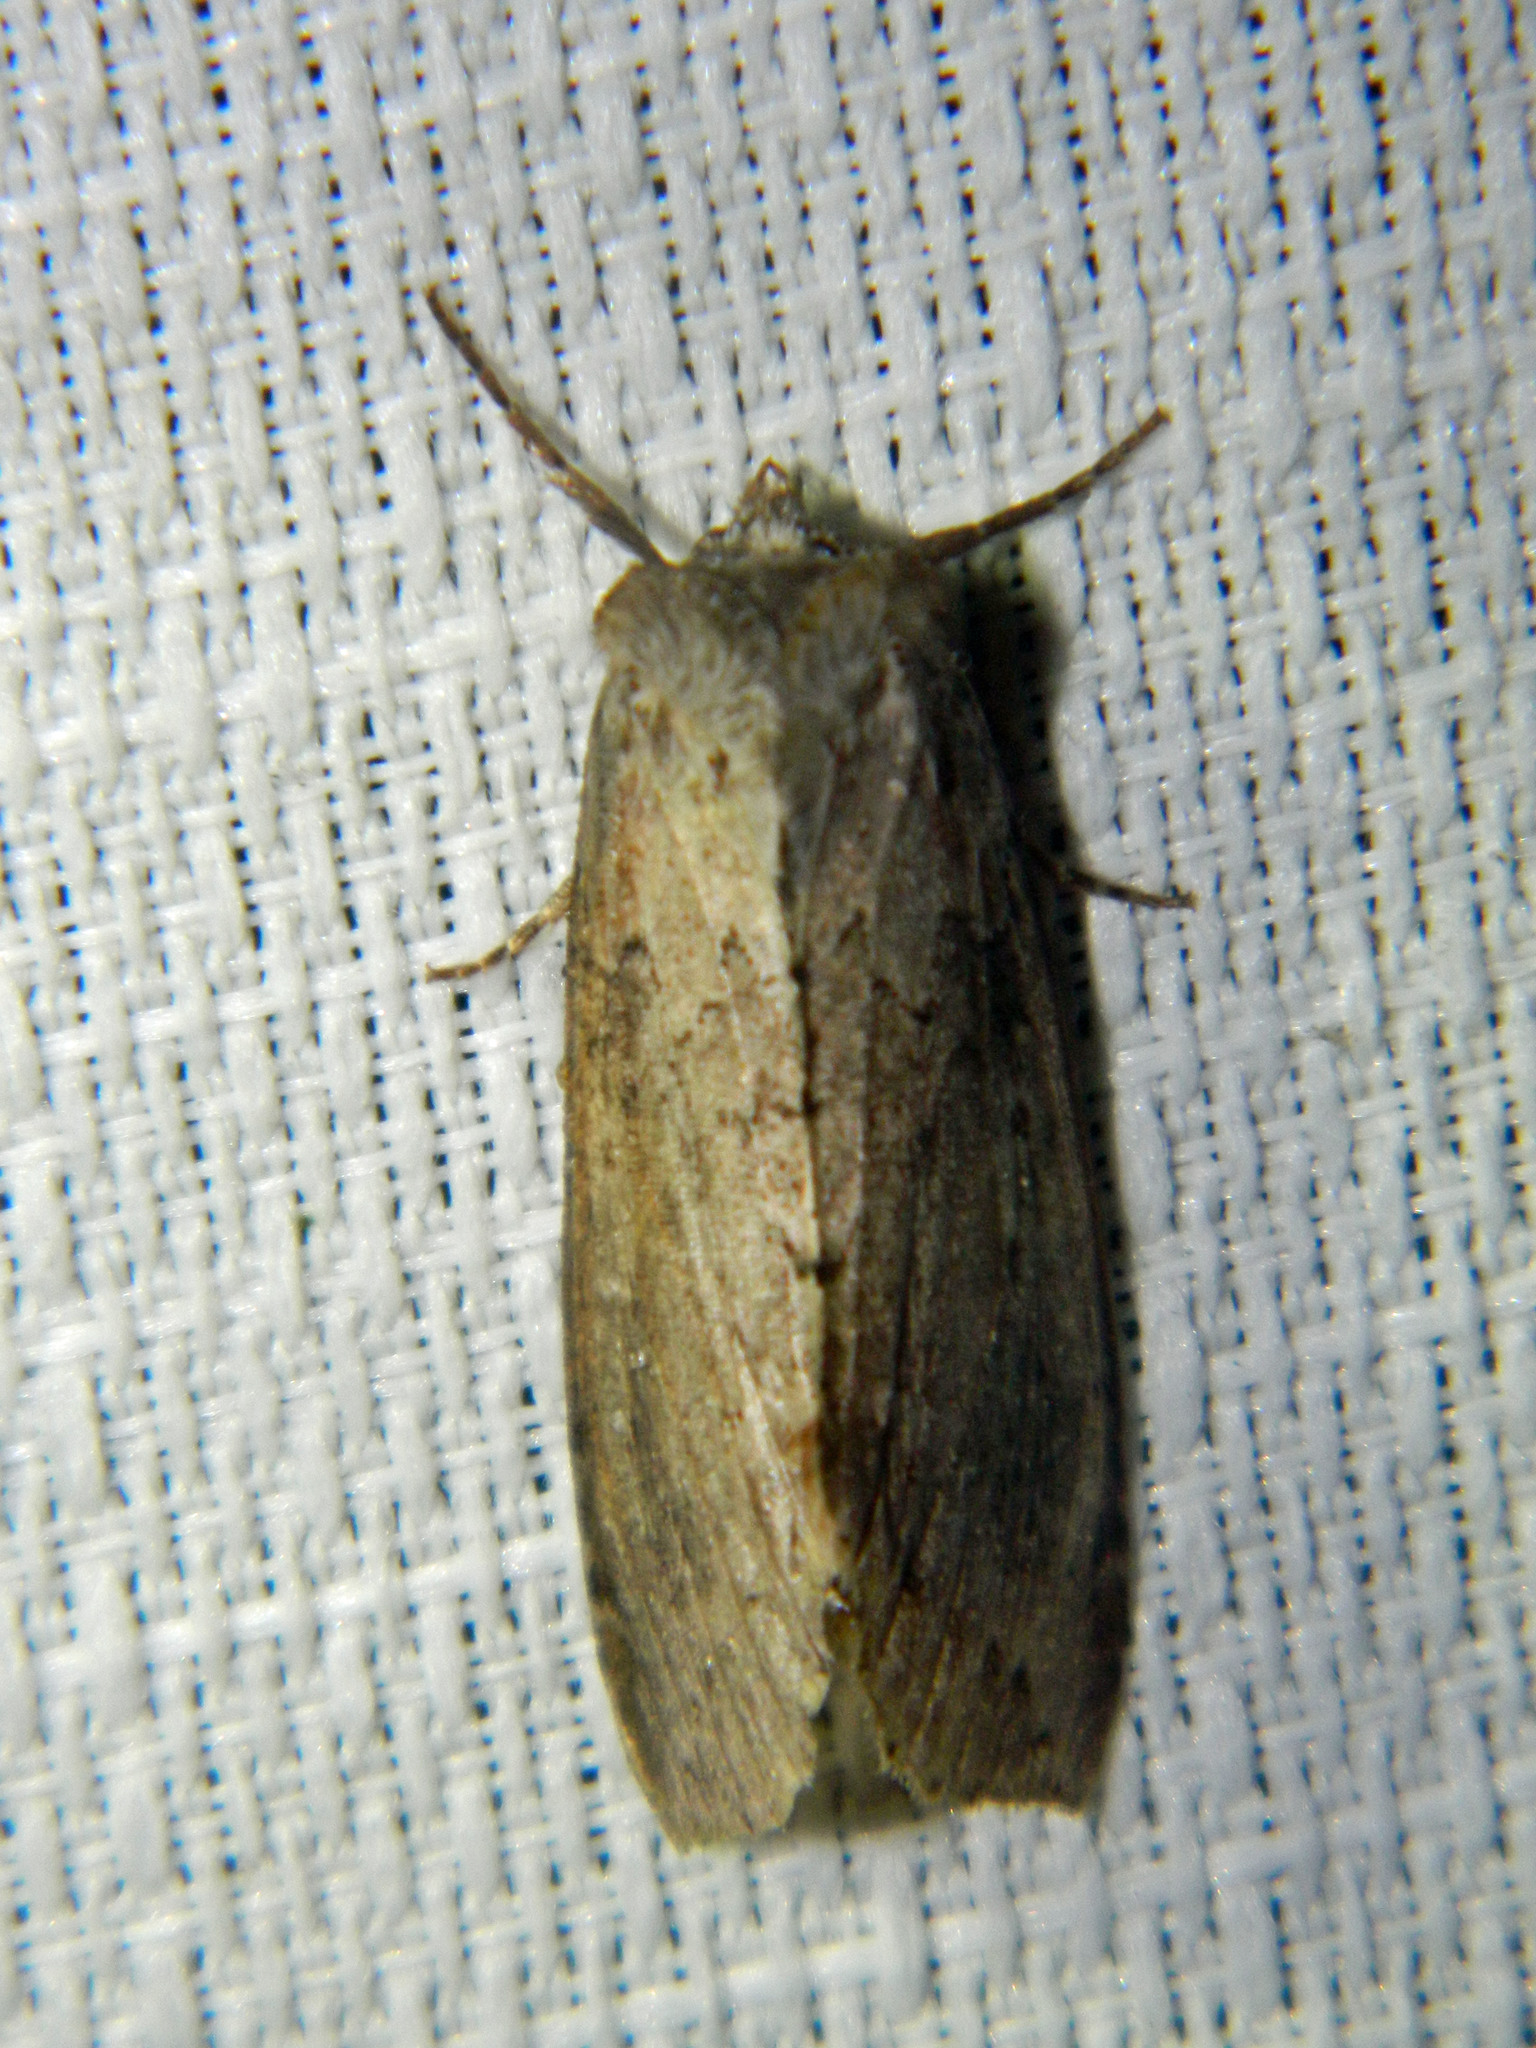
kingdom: Animalia
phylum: Arthropoda
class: Insecta
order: Lepidoptera
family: Drepanidae
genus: Pseudothyatira
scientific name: Pseudothyatira cymatophoroides
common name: Tufted thyatirid moth
